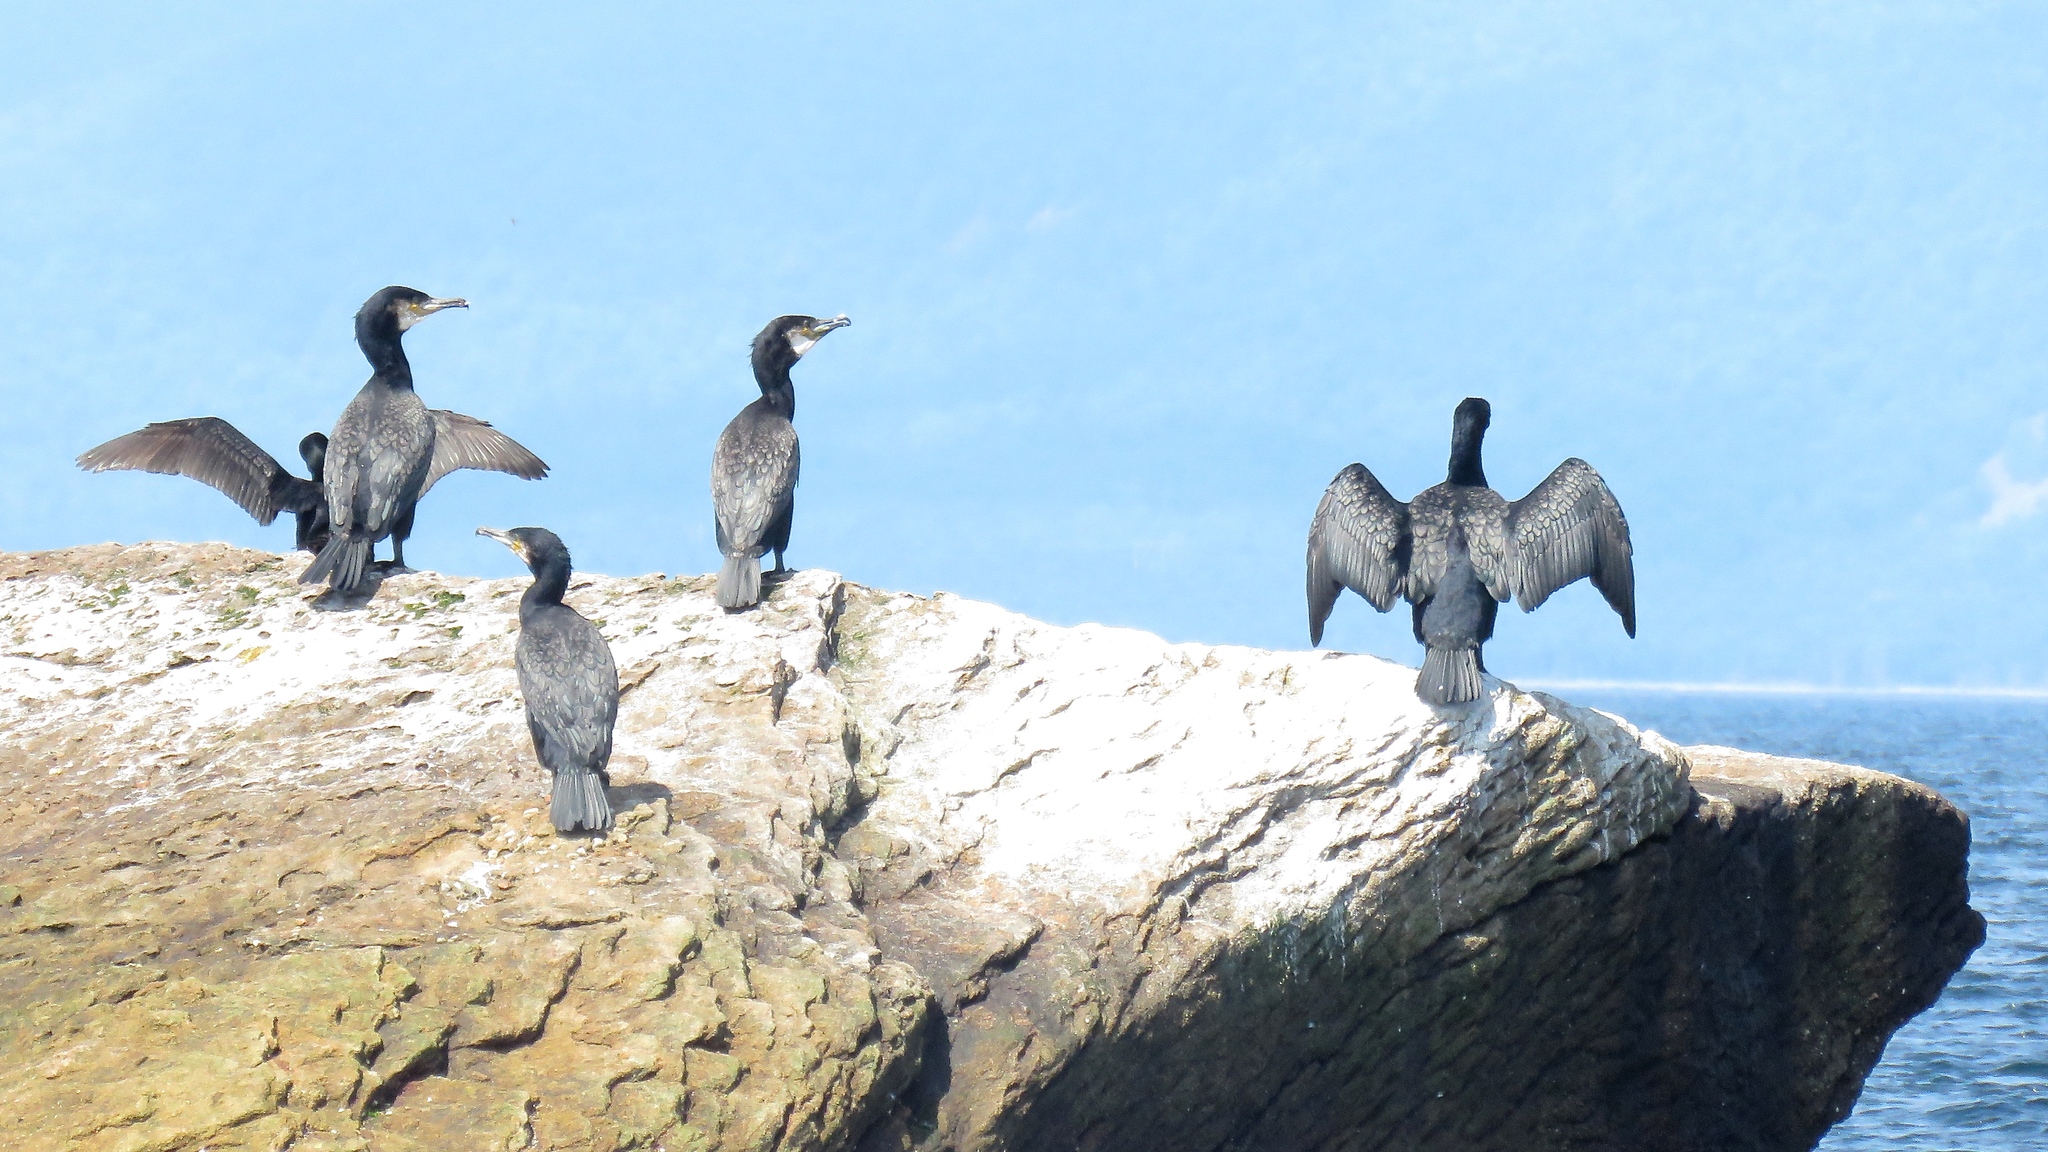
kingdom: Animalia
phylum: Chordata
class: Aves
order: Suliformes
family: Phalacrocoracidae
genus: Phalacrocorax
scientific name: Phalacrocorax carbo
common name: Great cormorant
